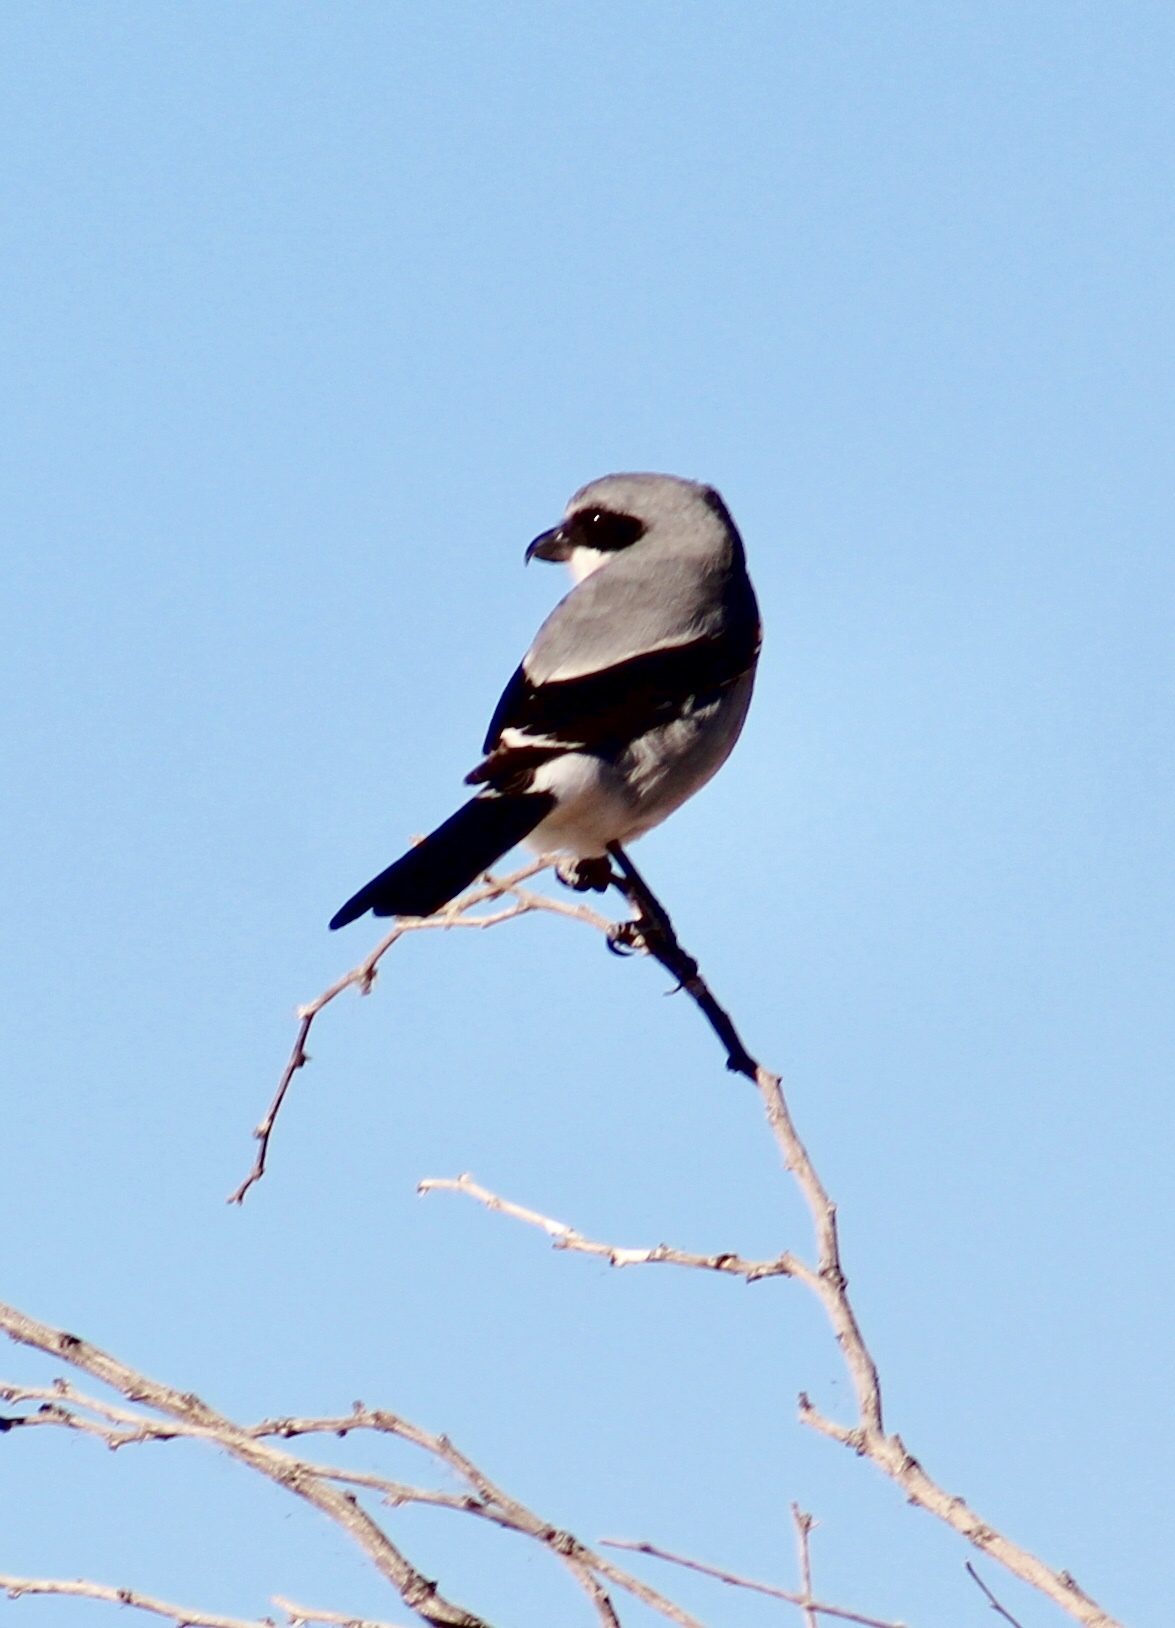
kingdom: Animalia
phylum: Chordata
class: Aves
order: Passeriformes
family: Laniidae
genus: Lanius
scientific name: Lanius ludovicianus
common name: Loggerhead shrike
